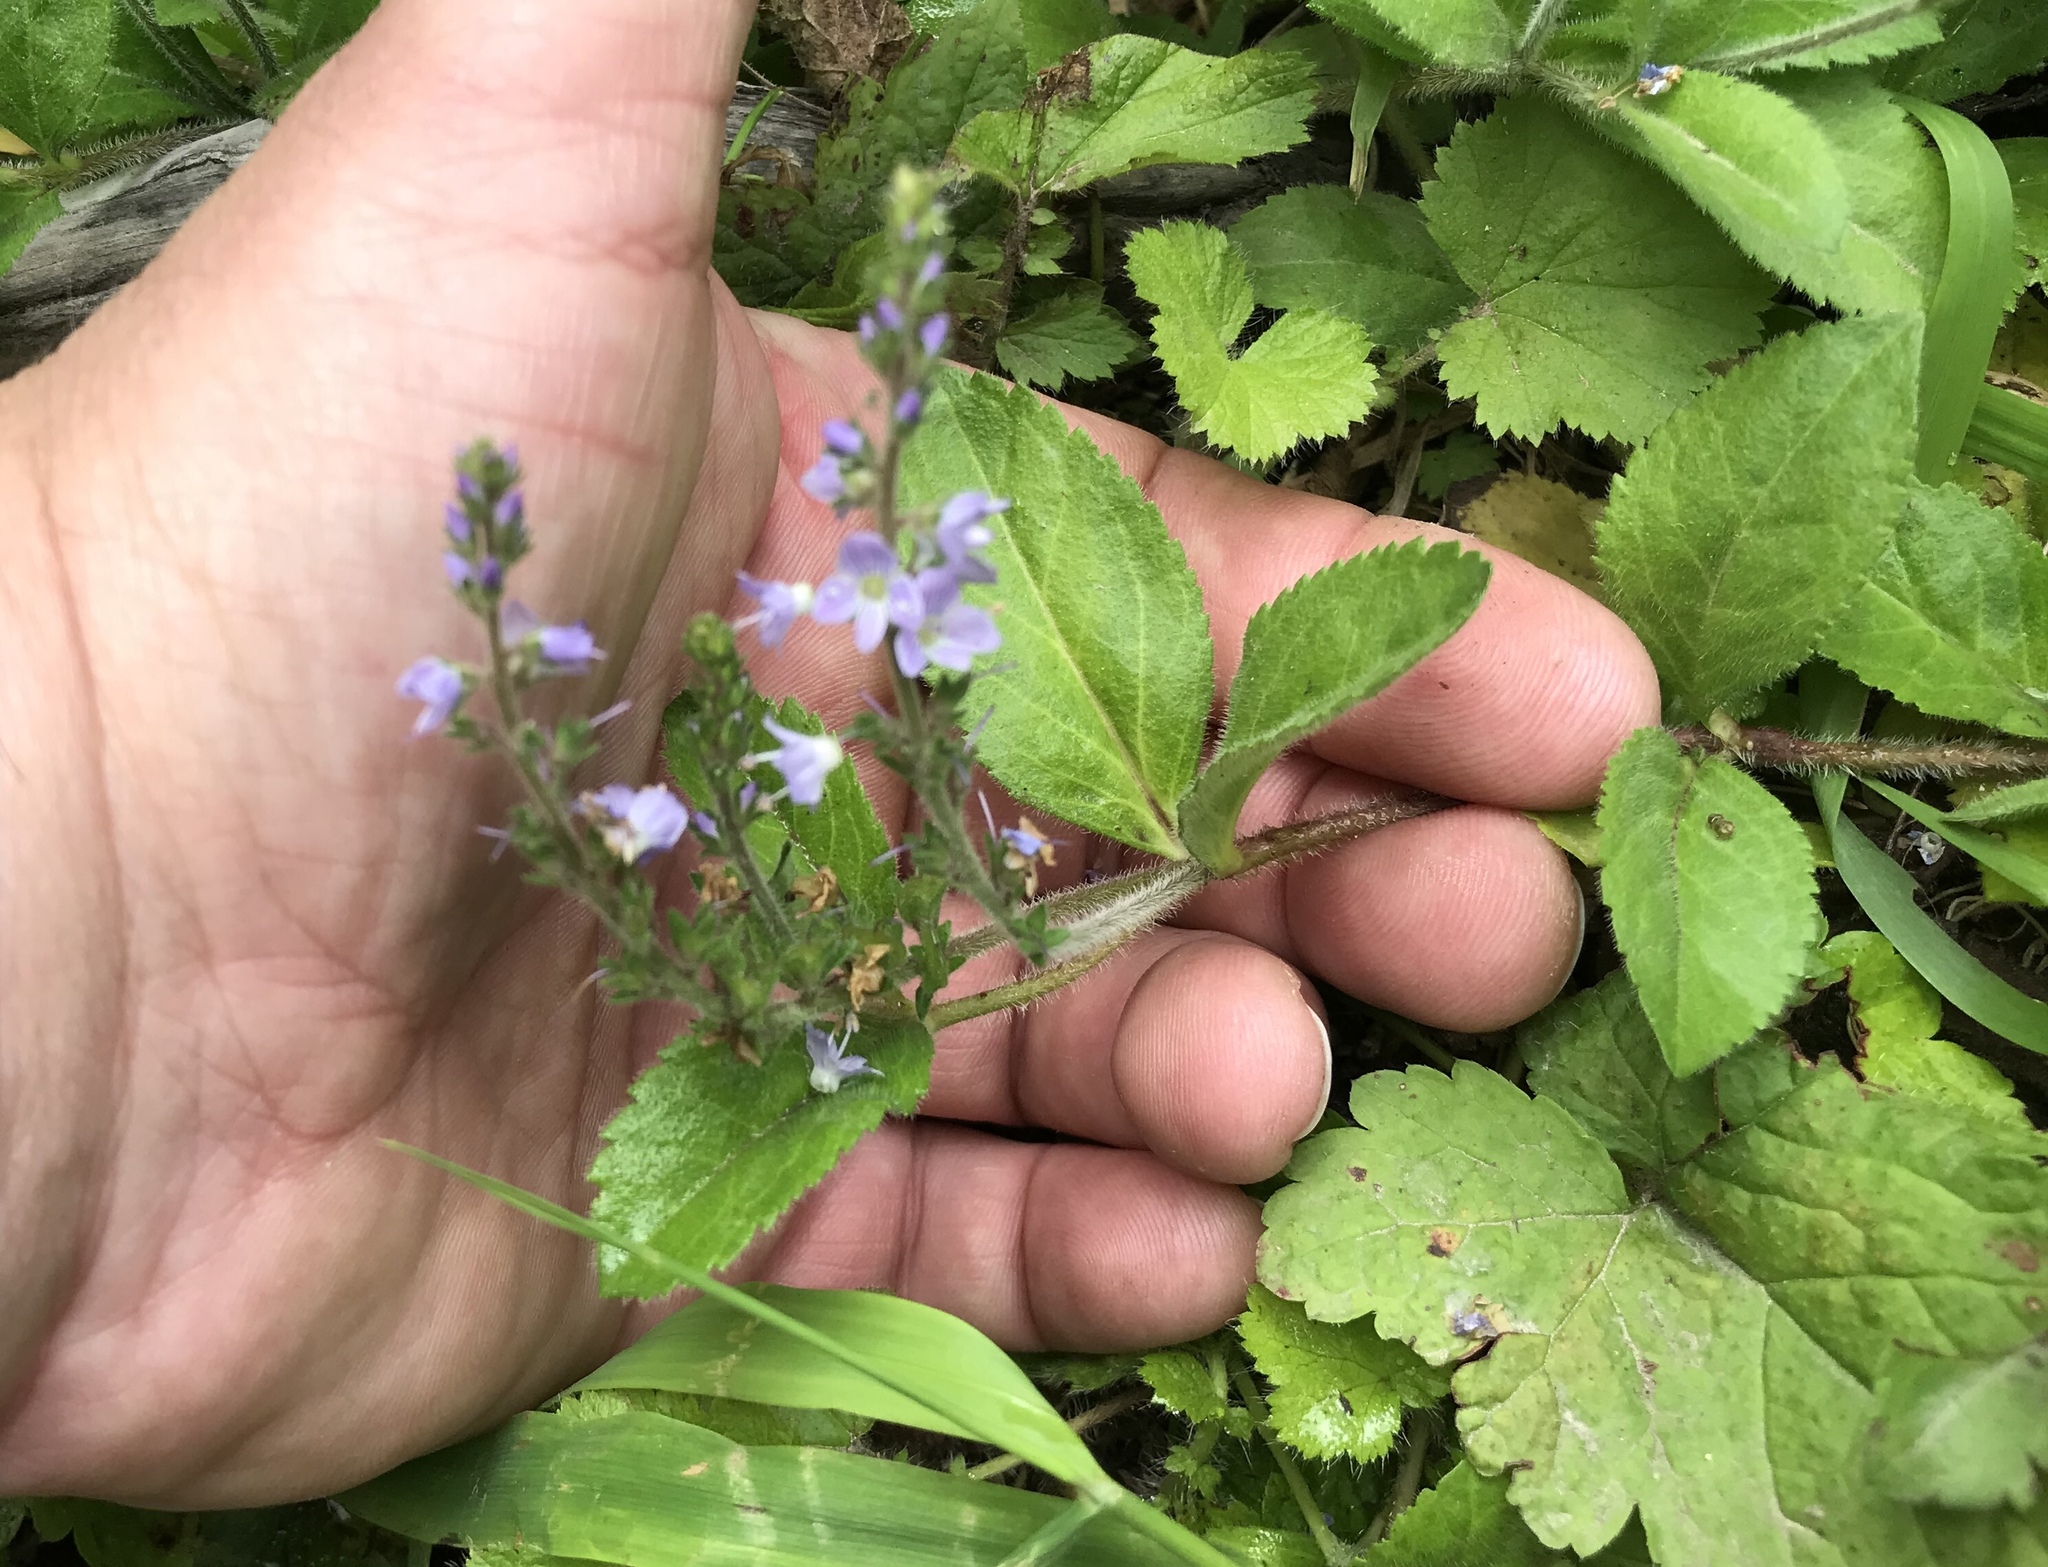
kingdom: Plantae
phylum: Tracheophyta
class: Magnoliopsida
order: Lamiales
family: Plantaginaceae
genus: Veronica
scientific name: Veronica officinalis
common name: Common speedwell
